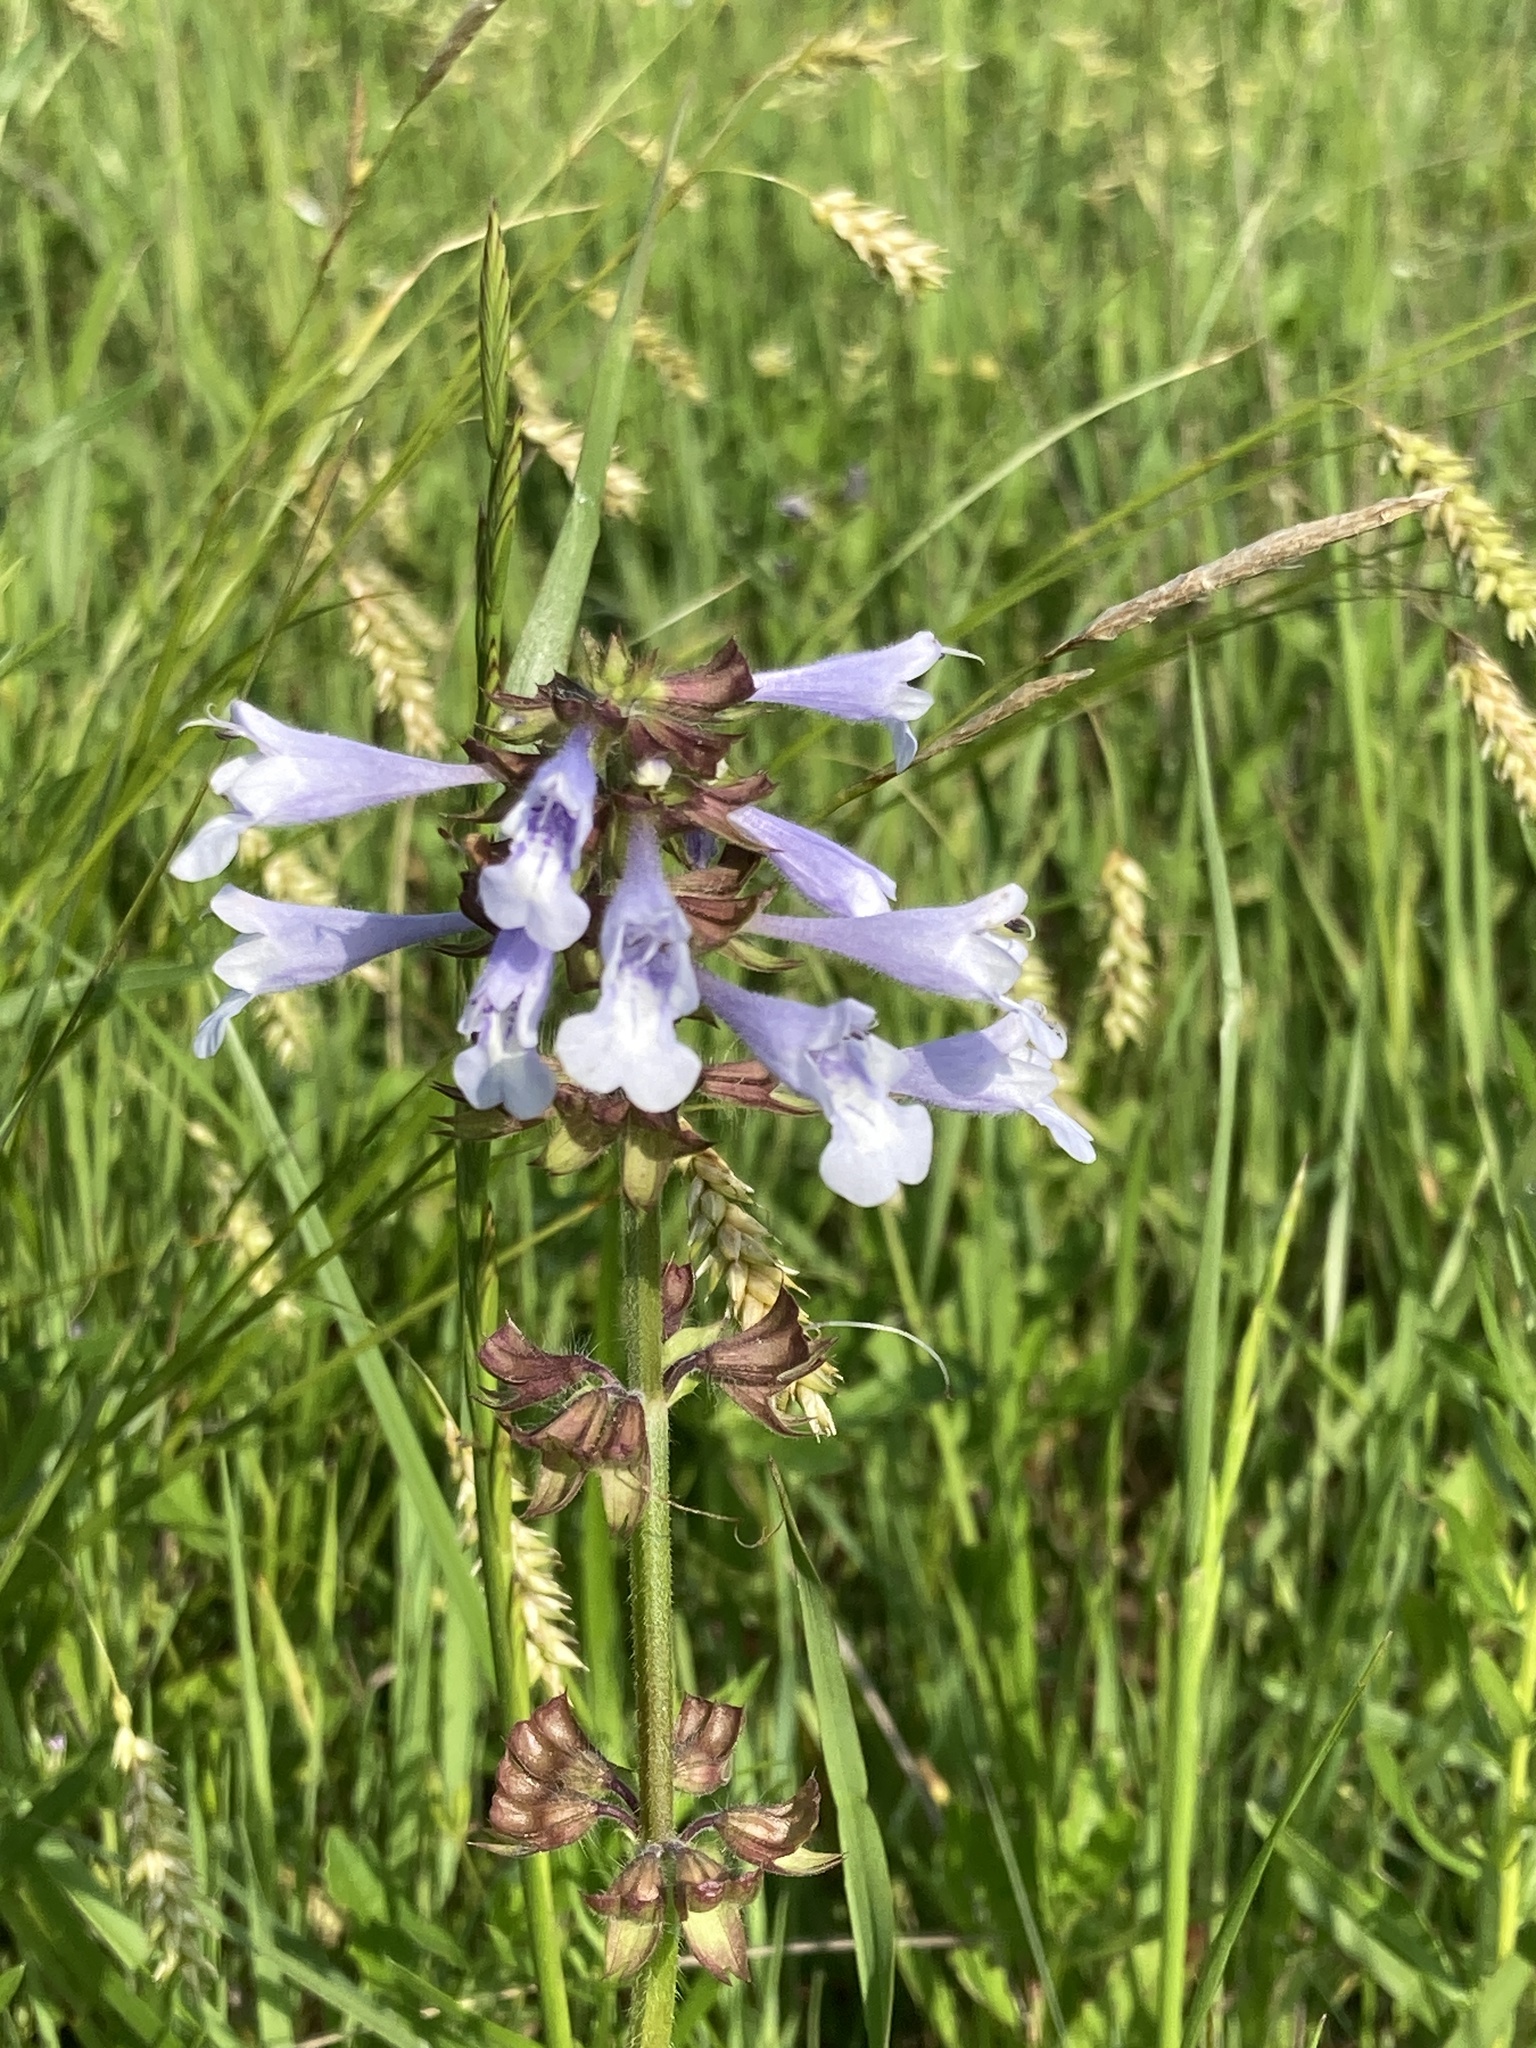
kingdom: Plantae
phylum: Tracheophyta
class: Magnoliopsida
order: Lamiales
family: Lamiaceae
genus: Salvia
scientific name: Salvia lyrata
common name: Cancerweed
